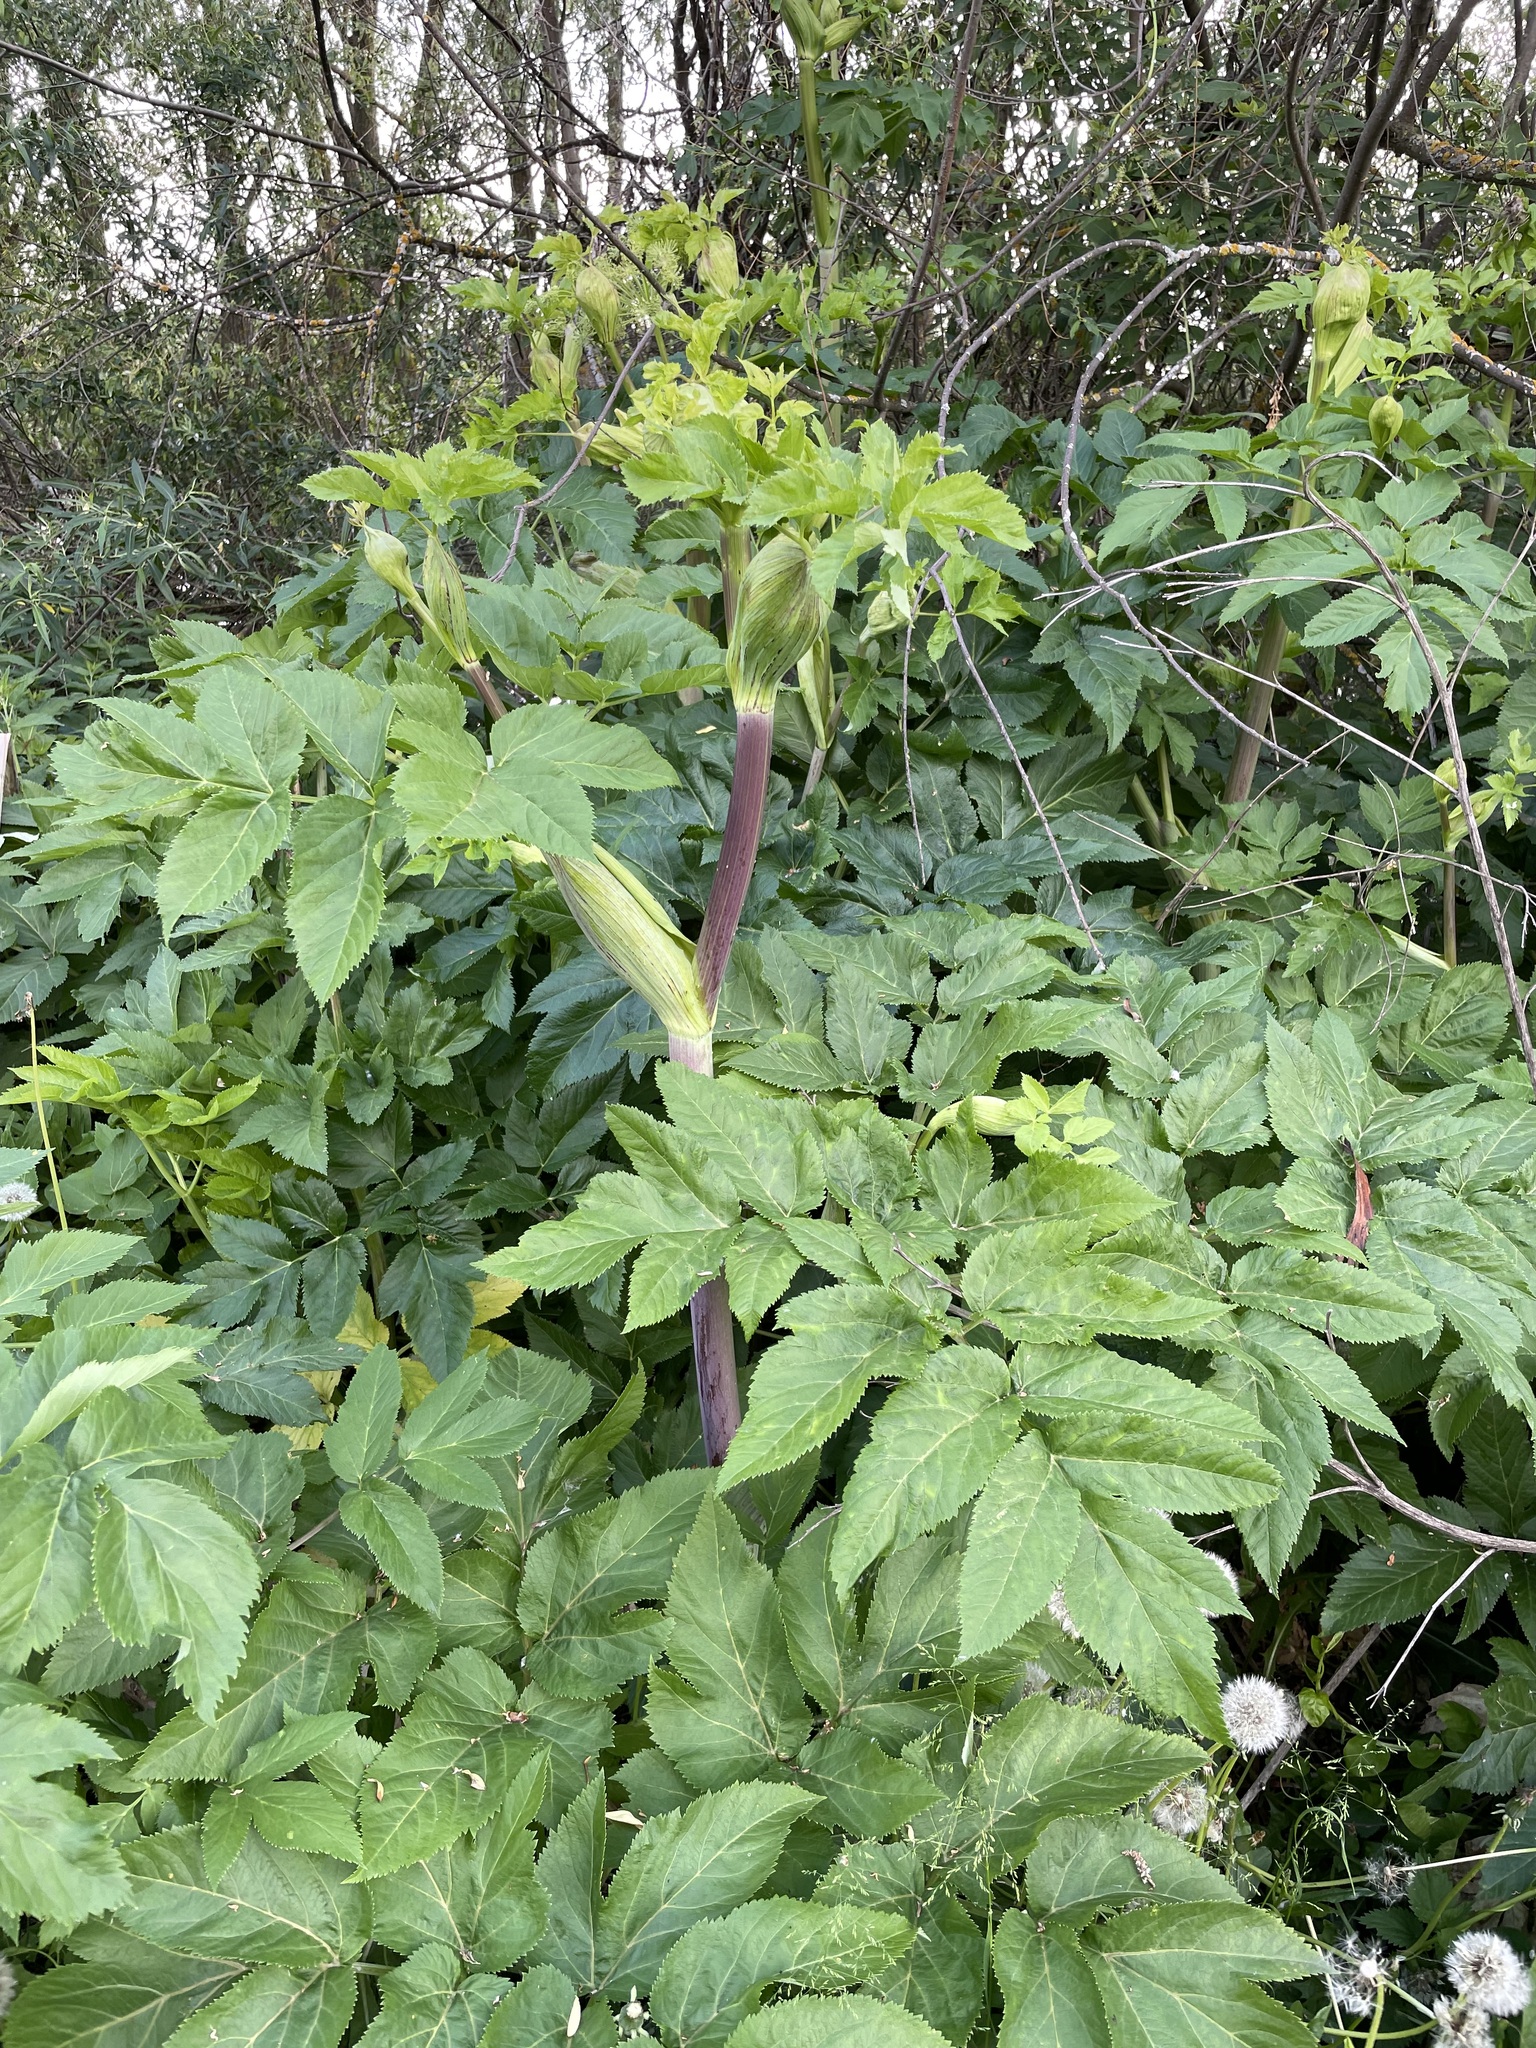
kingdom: Plantae
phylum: Tracheophyta
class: Magnoliopsida
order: Apiales
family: Apiaceae
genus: Angelica
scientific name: Angelica archangelica
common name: Garden angelica
